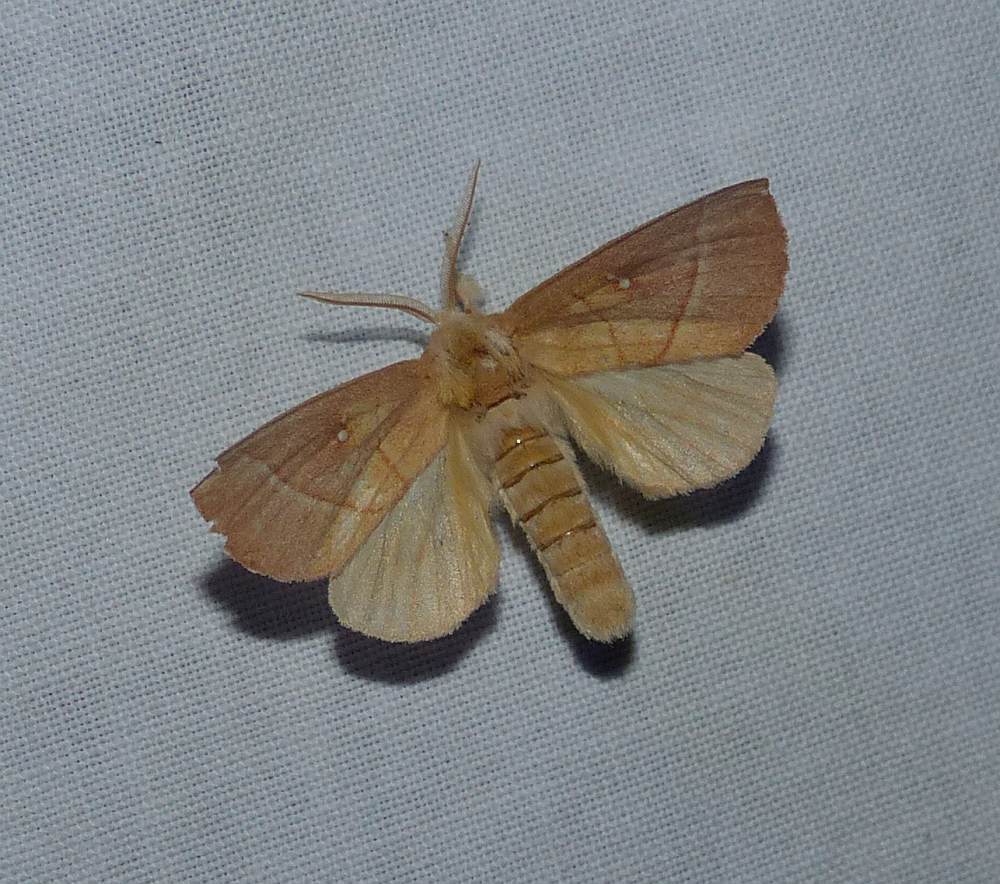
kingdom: Animalia
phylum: Arthropoda
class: Insecta
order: Lepidoptera
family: Notodontidae
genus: Nadata
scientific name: Nadata gibbosa
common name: White-dotted prominent
